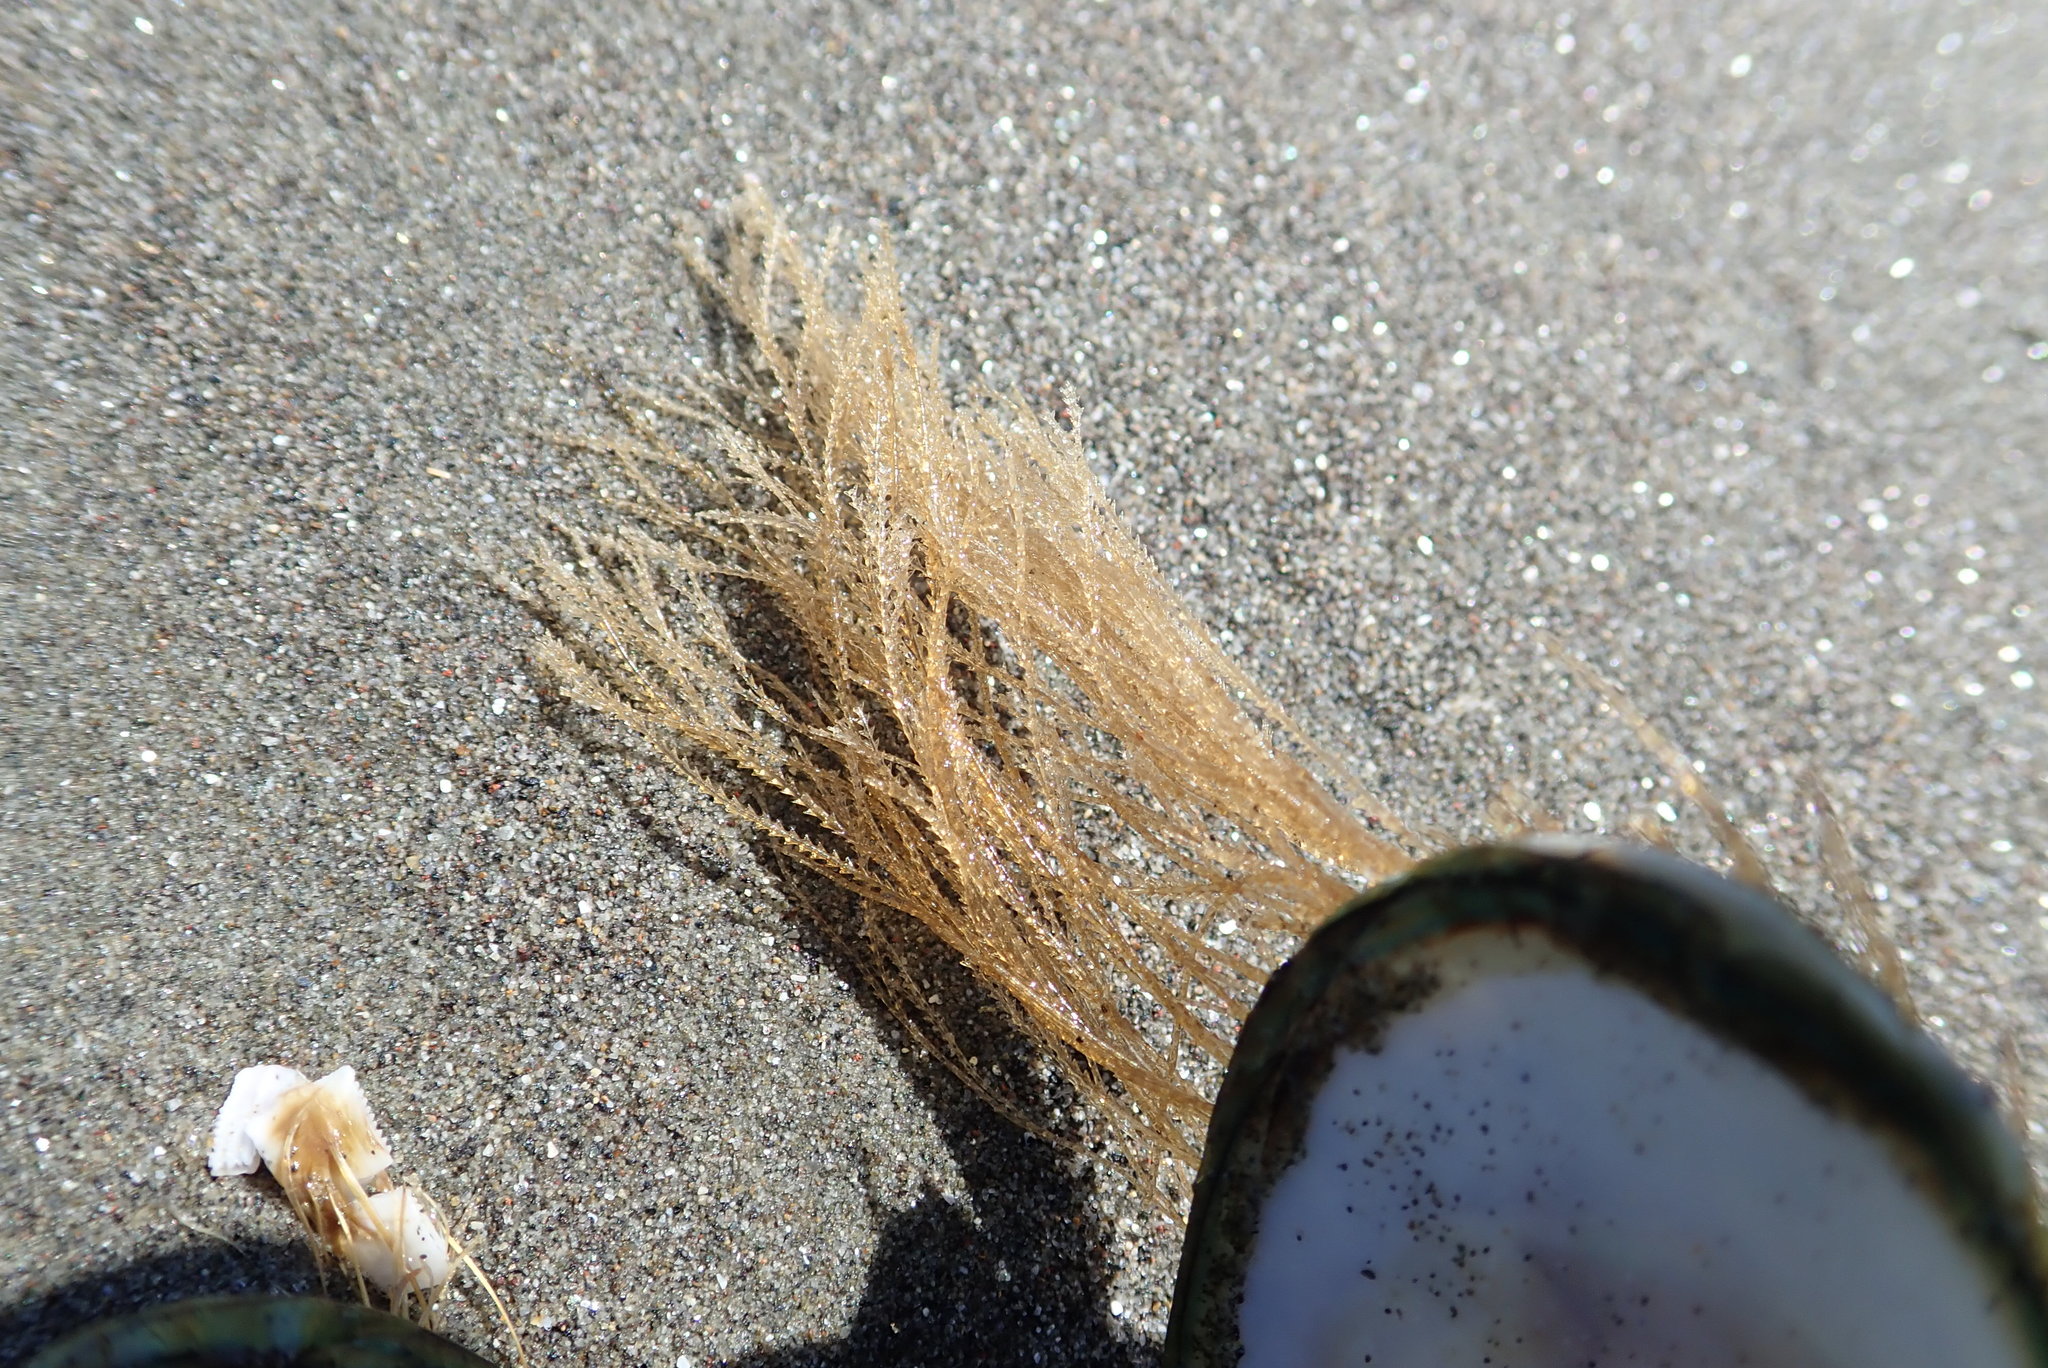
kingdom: Animalia
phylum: Cnidaria
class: Hydrozoa
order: Leptothecata
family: Sertulariidae
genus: Amphisbetia
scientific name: Amphisbetia bispinosa
